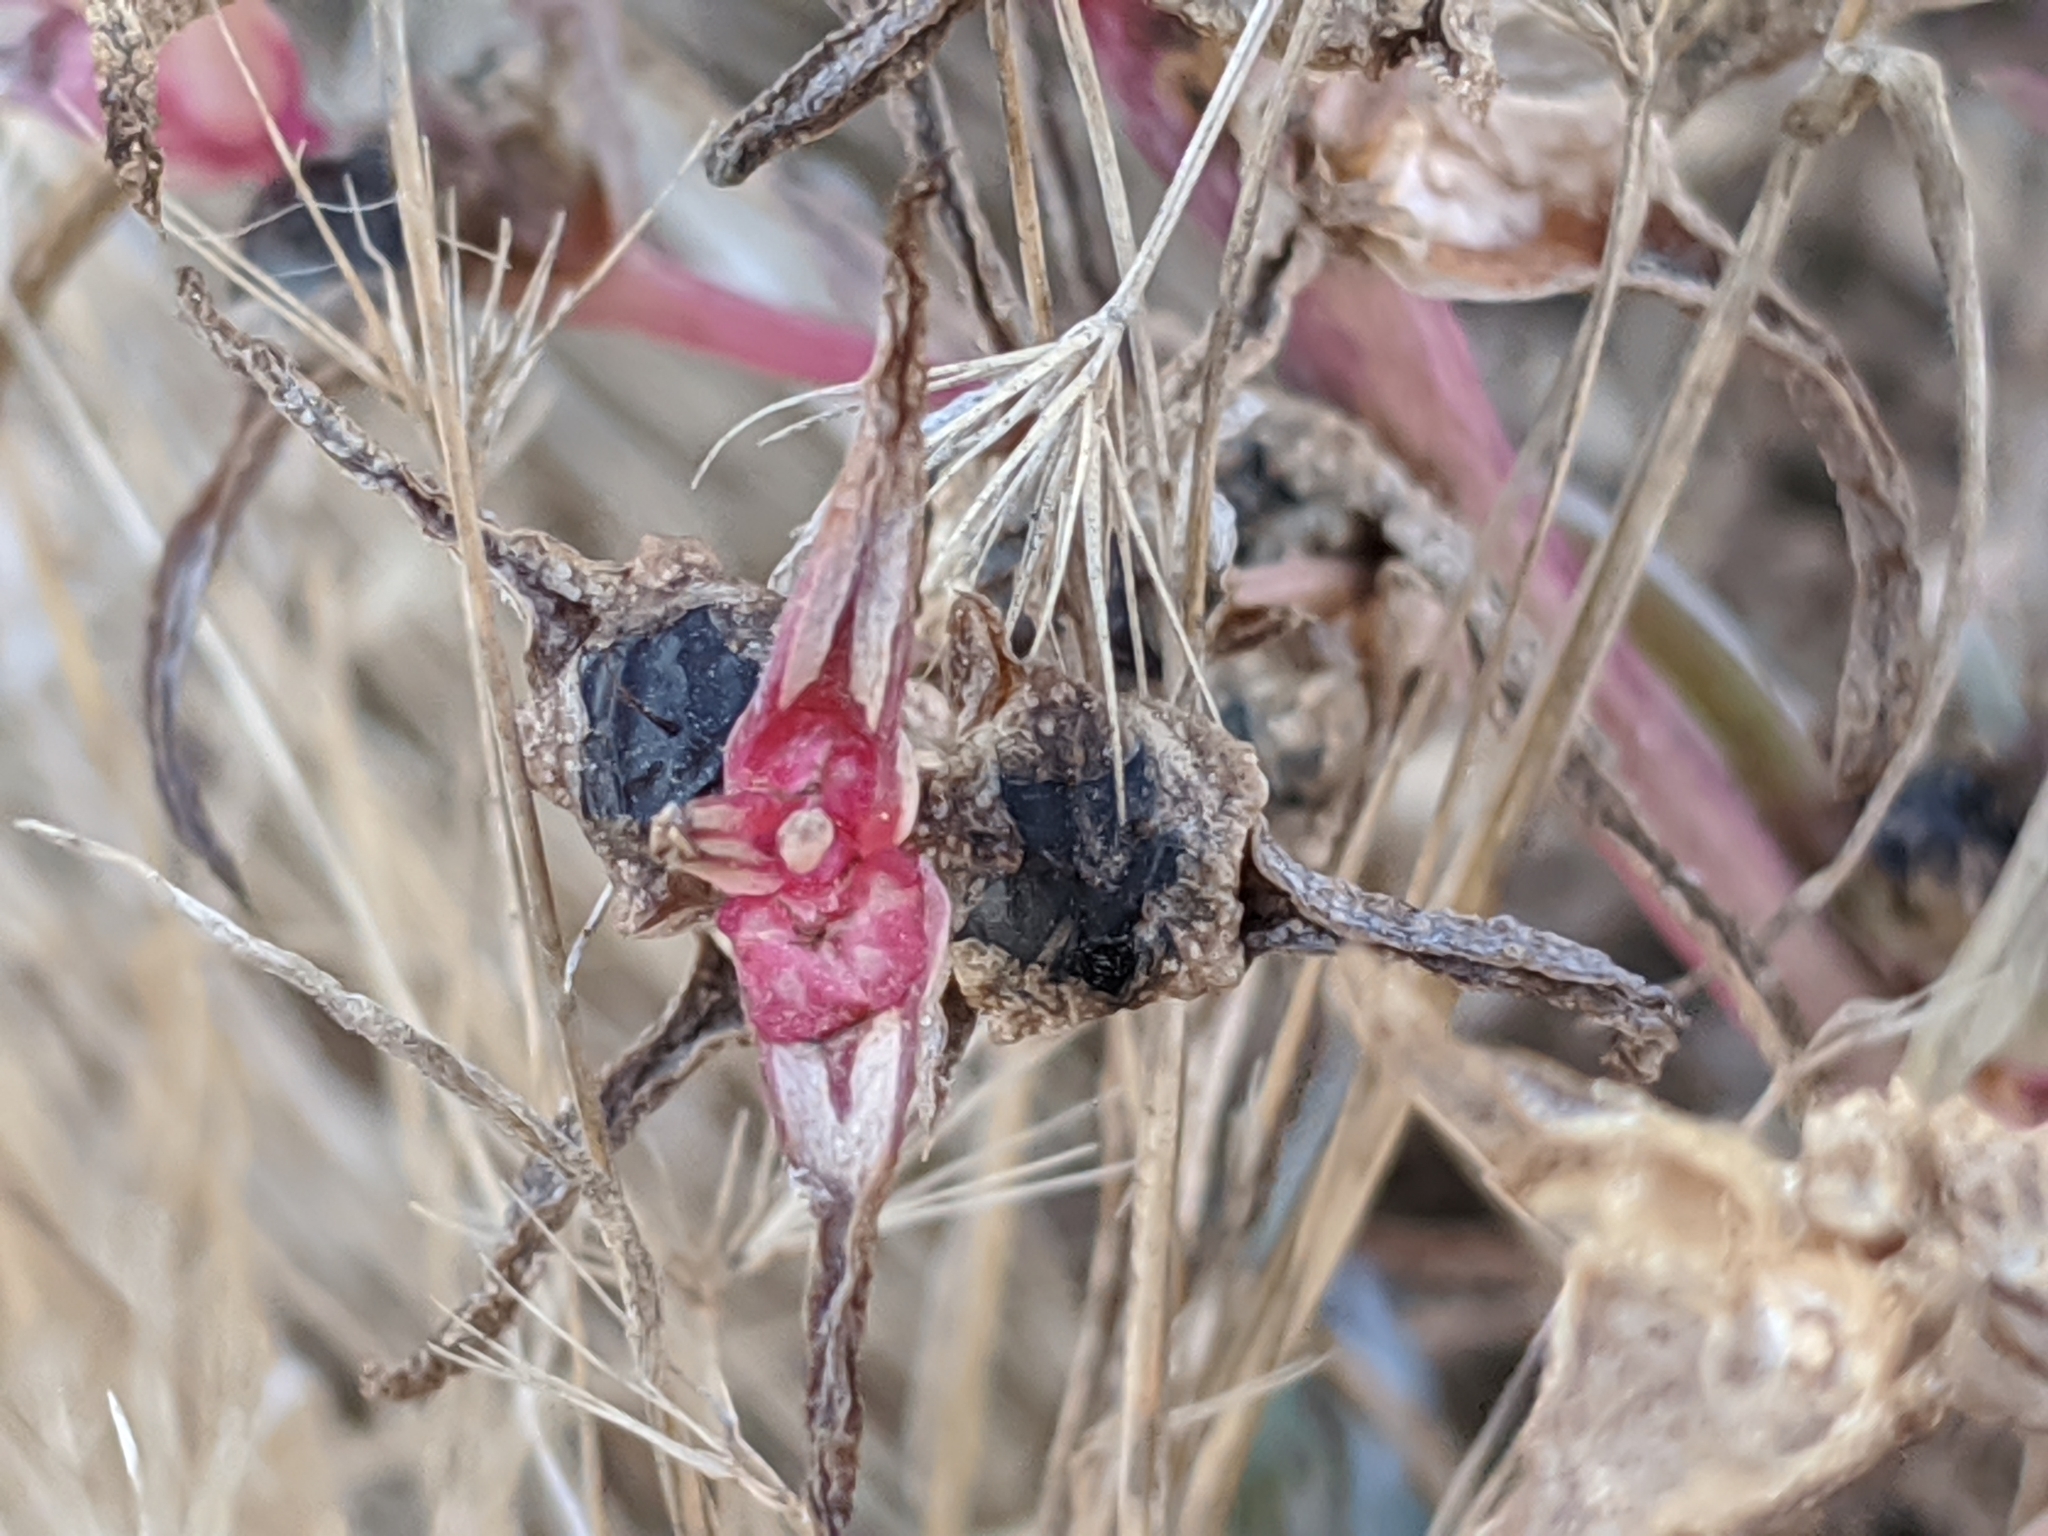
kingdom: Plantae
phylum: Tracheophyta
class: Magnoliopsida
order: Caryophyllales
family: Amaranthaceae
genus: Salsola
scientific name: Salsola soda
